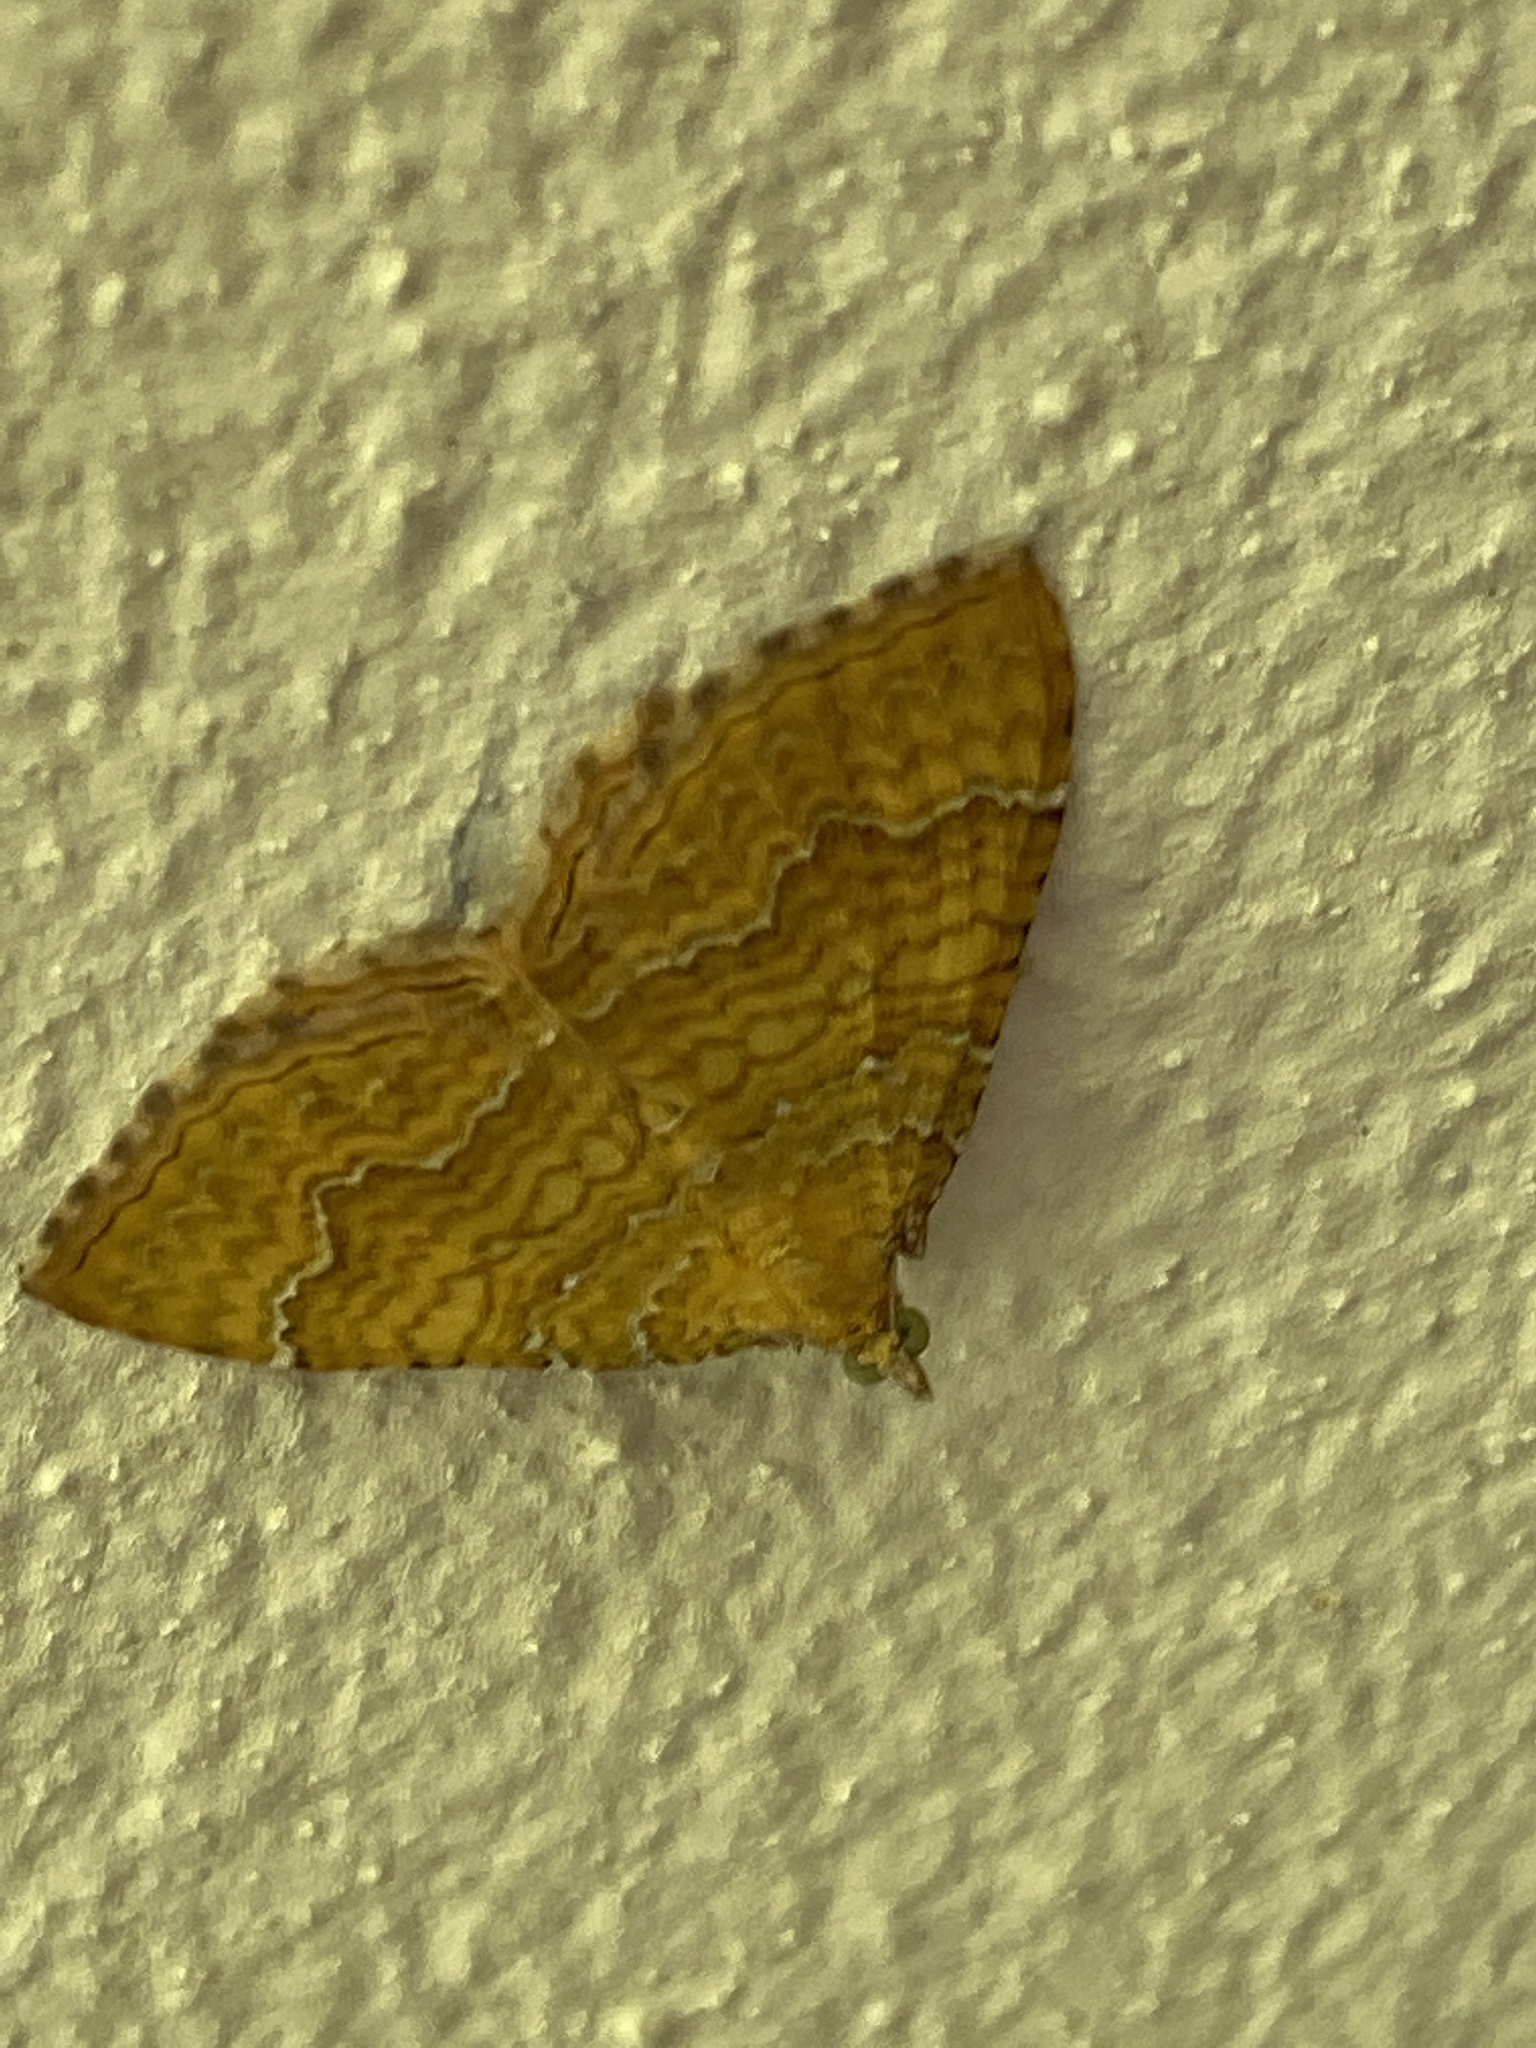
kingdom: Animalia
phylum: Arthropoda
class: Insecta
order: Lepidoptera
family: Geometridae
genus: Camptogramma
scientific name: Camptogramma bilineata
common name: Yellow shell
